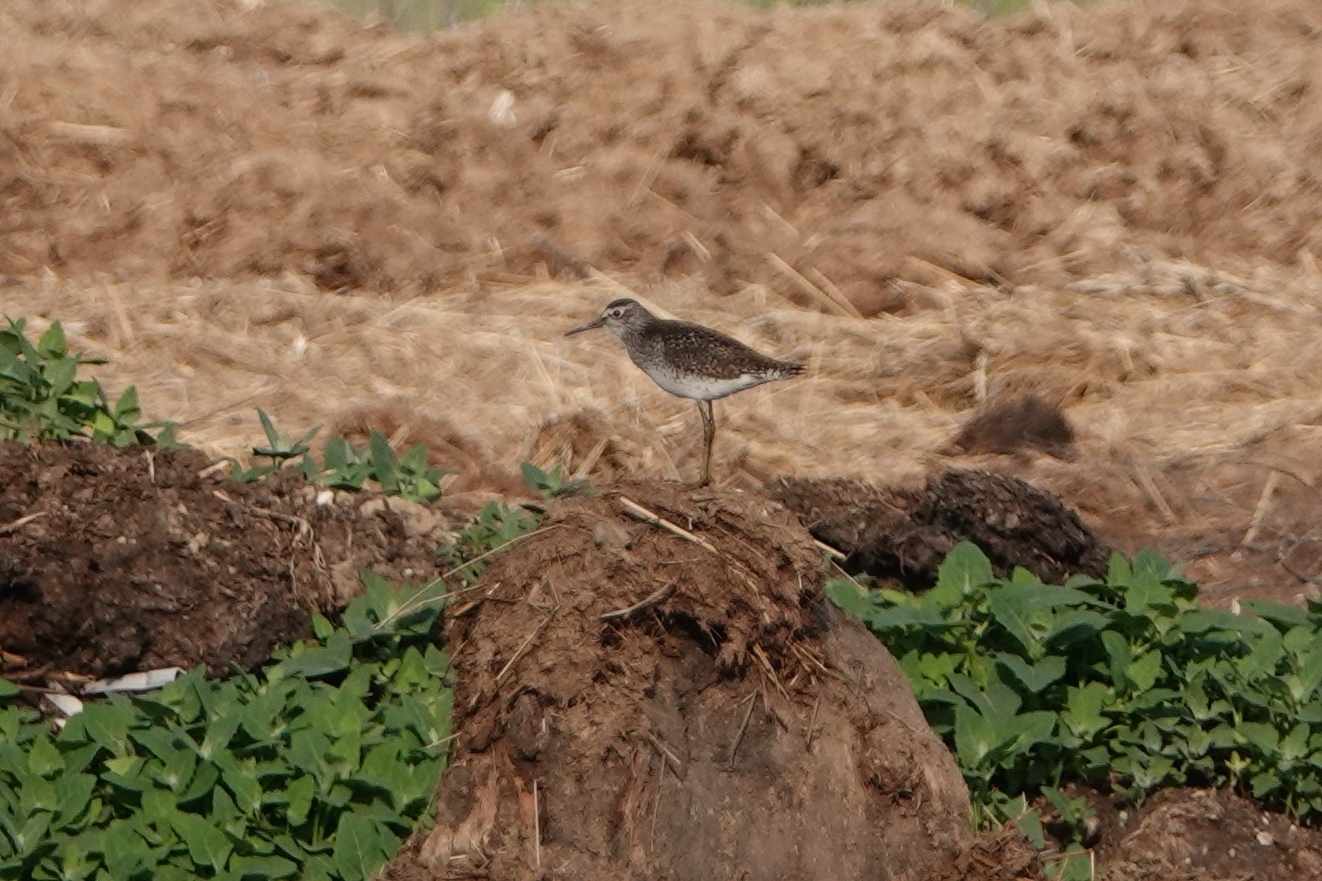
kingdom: Animalia
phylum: Chordata
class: Aves
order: Charadriiformes
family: Scolopacidae
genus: Tringa
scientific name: Tringa glareola
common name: Wood sandpiper
